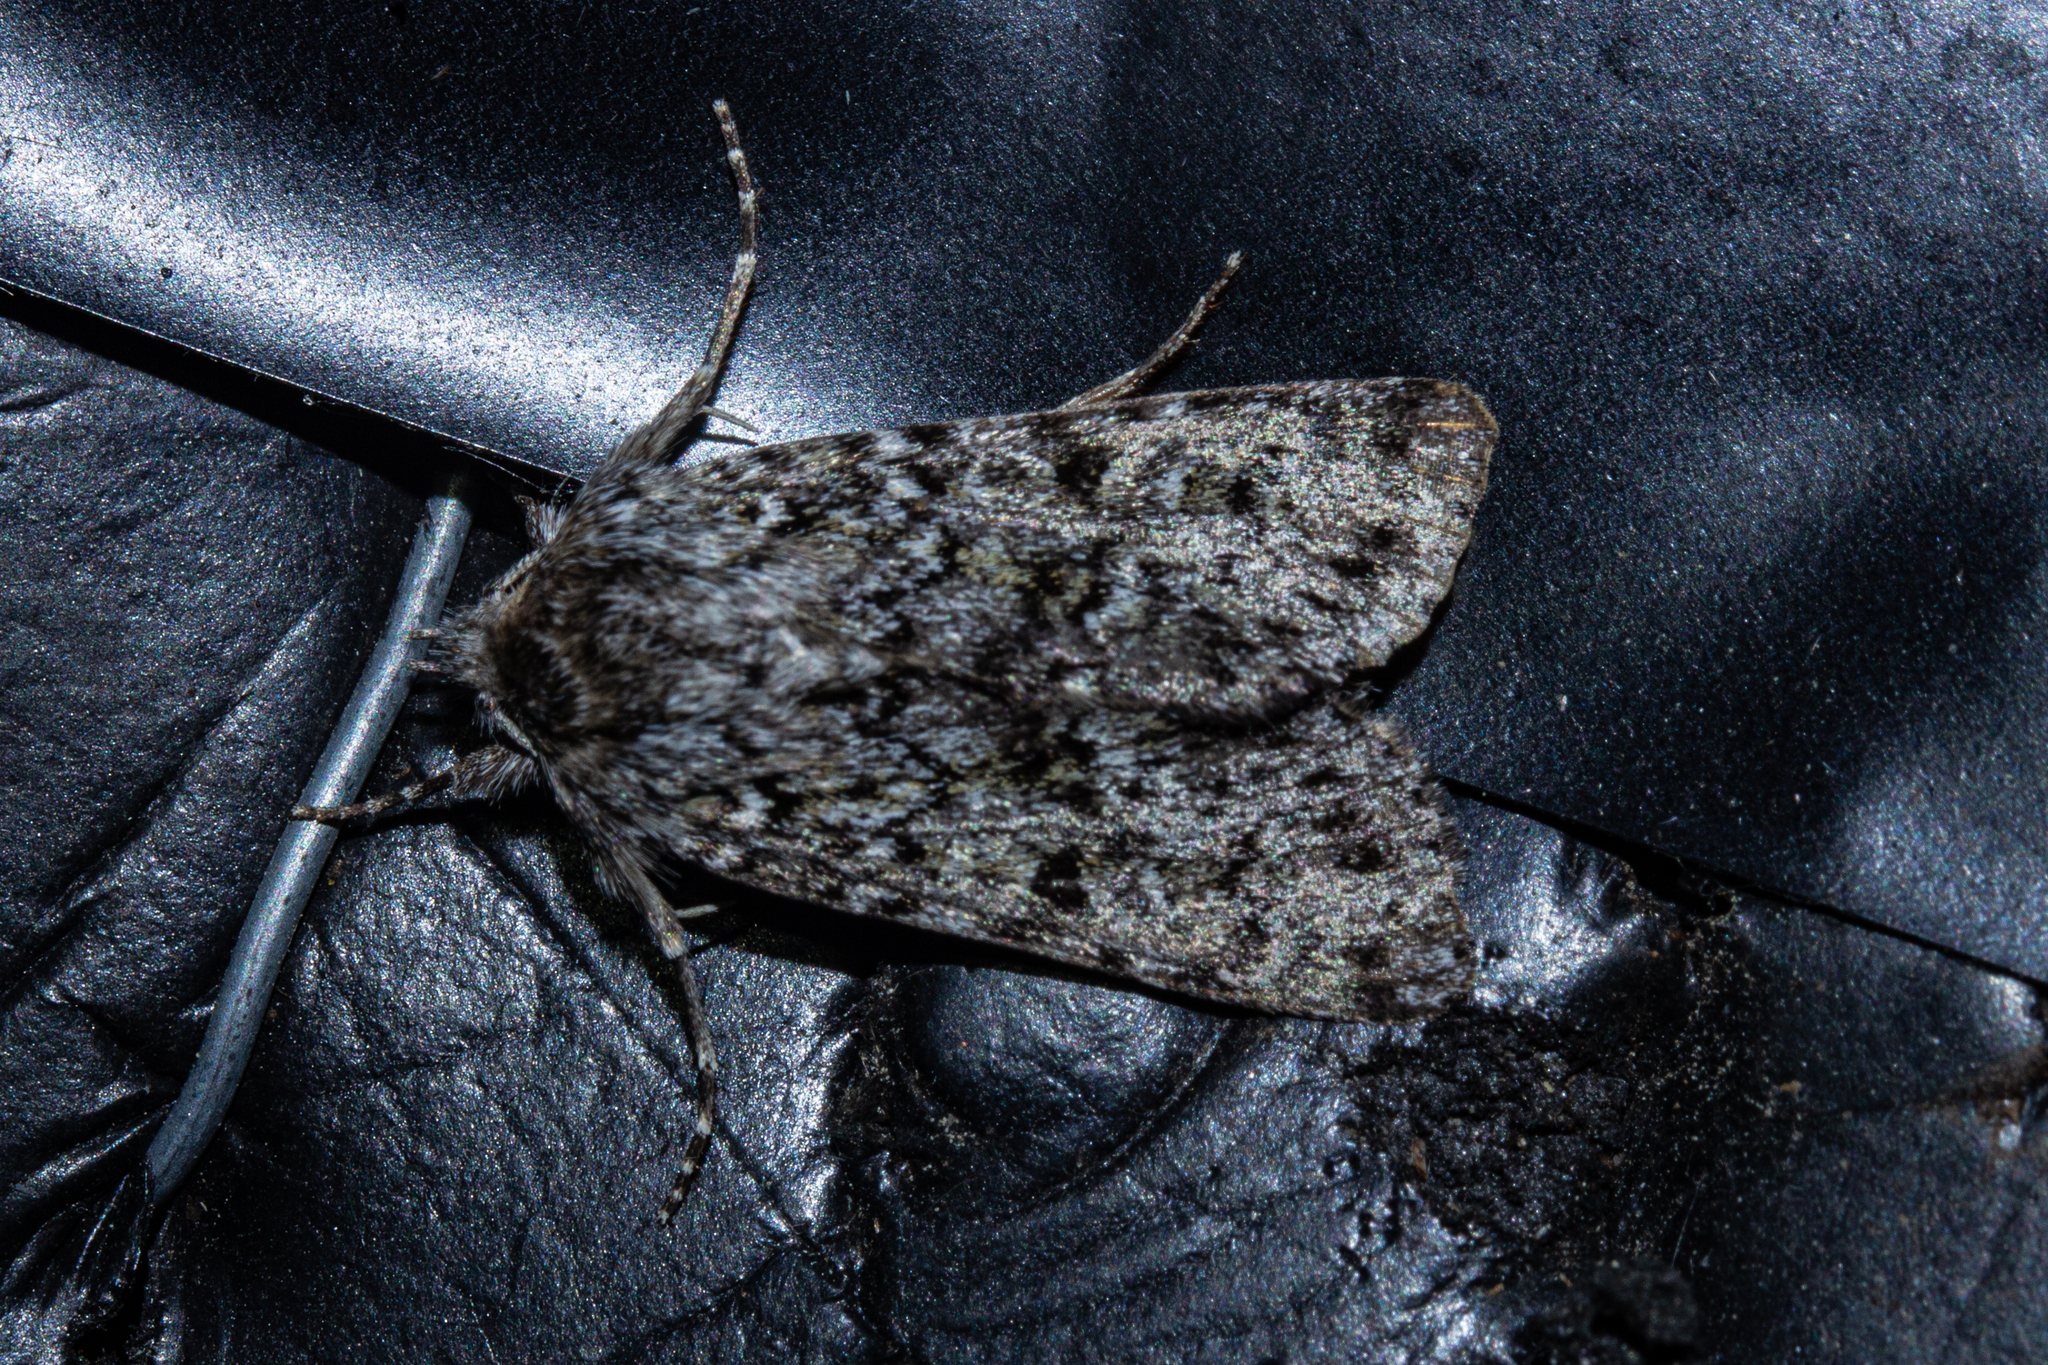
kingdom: Animalia
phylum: Arthropoda
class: Insecta
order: Lepidoptera
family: Noctuidae
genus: Physetica
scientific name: Physetica cucullina
